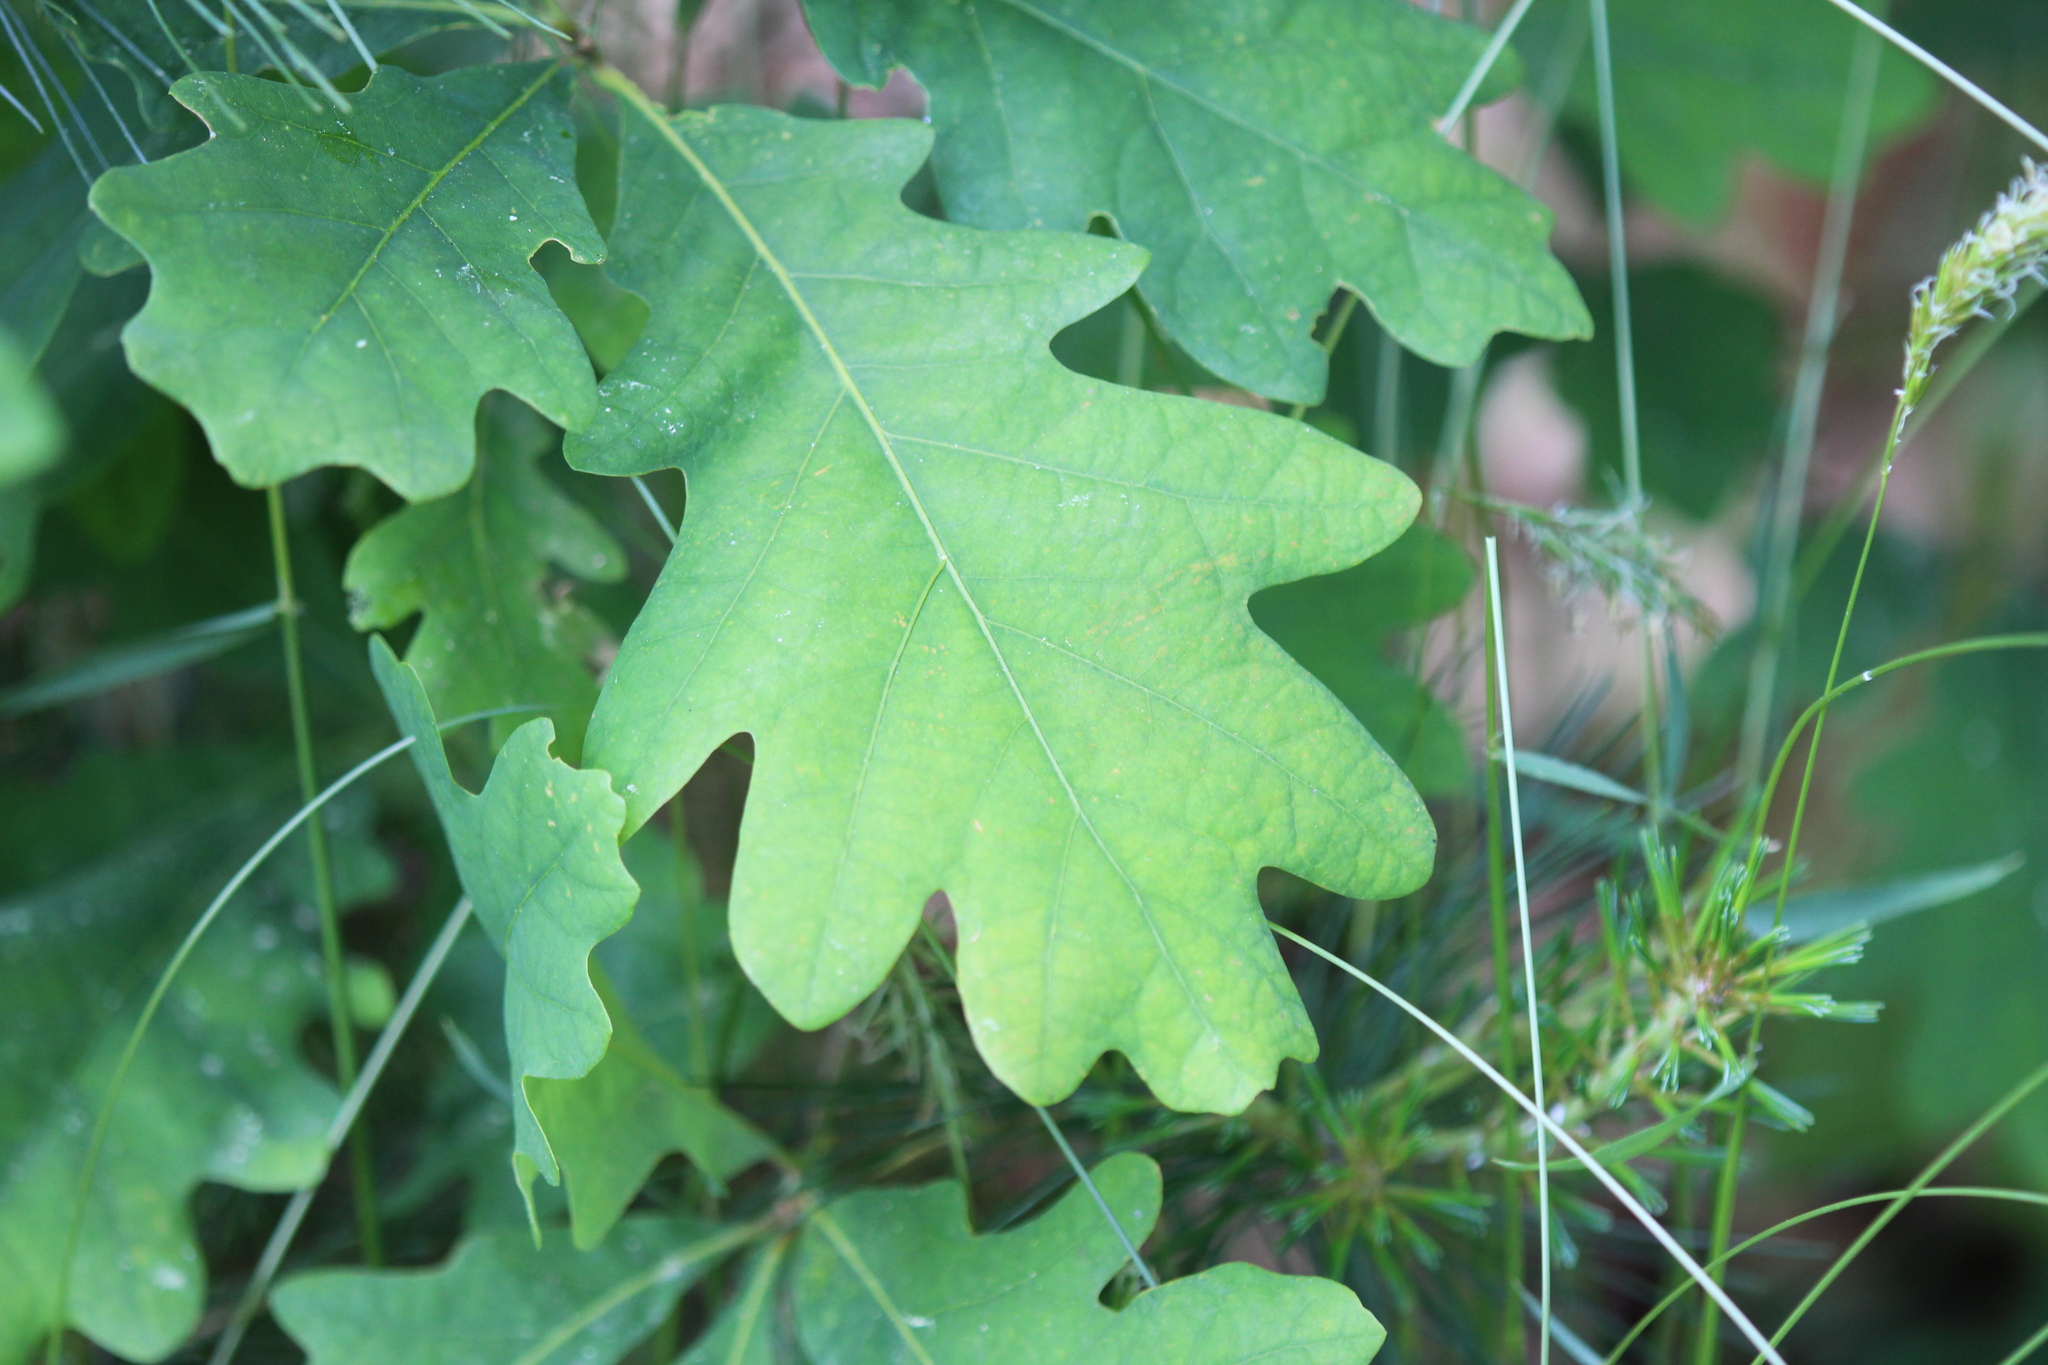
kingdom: Plantae
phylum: Tracheophyta
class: Magnoliopsida
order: Fagales
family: Fagaceae
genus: Quercus
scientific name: Quercus alba
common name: White oak
